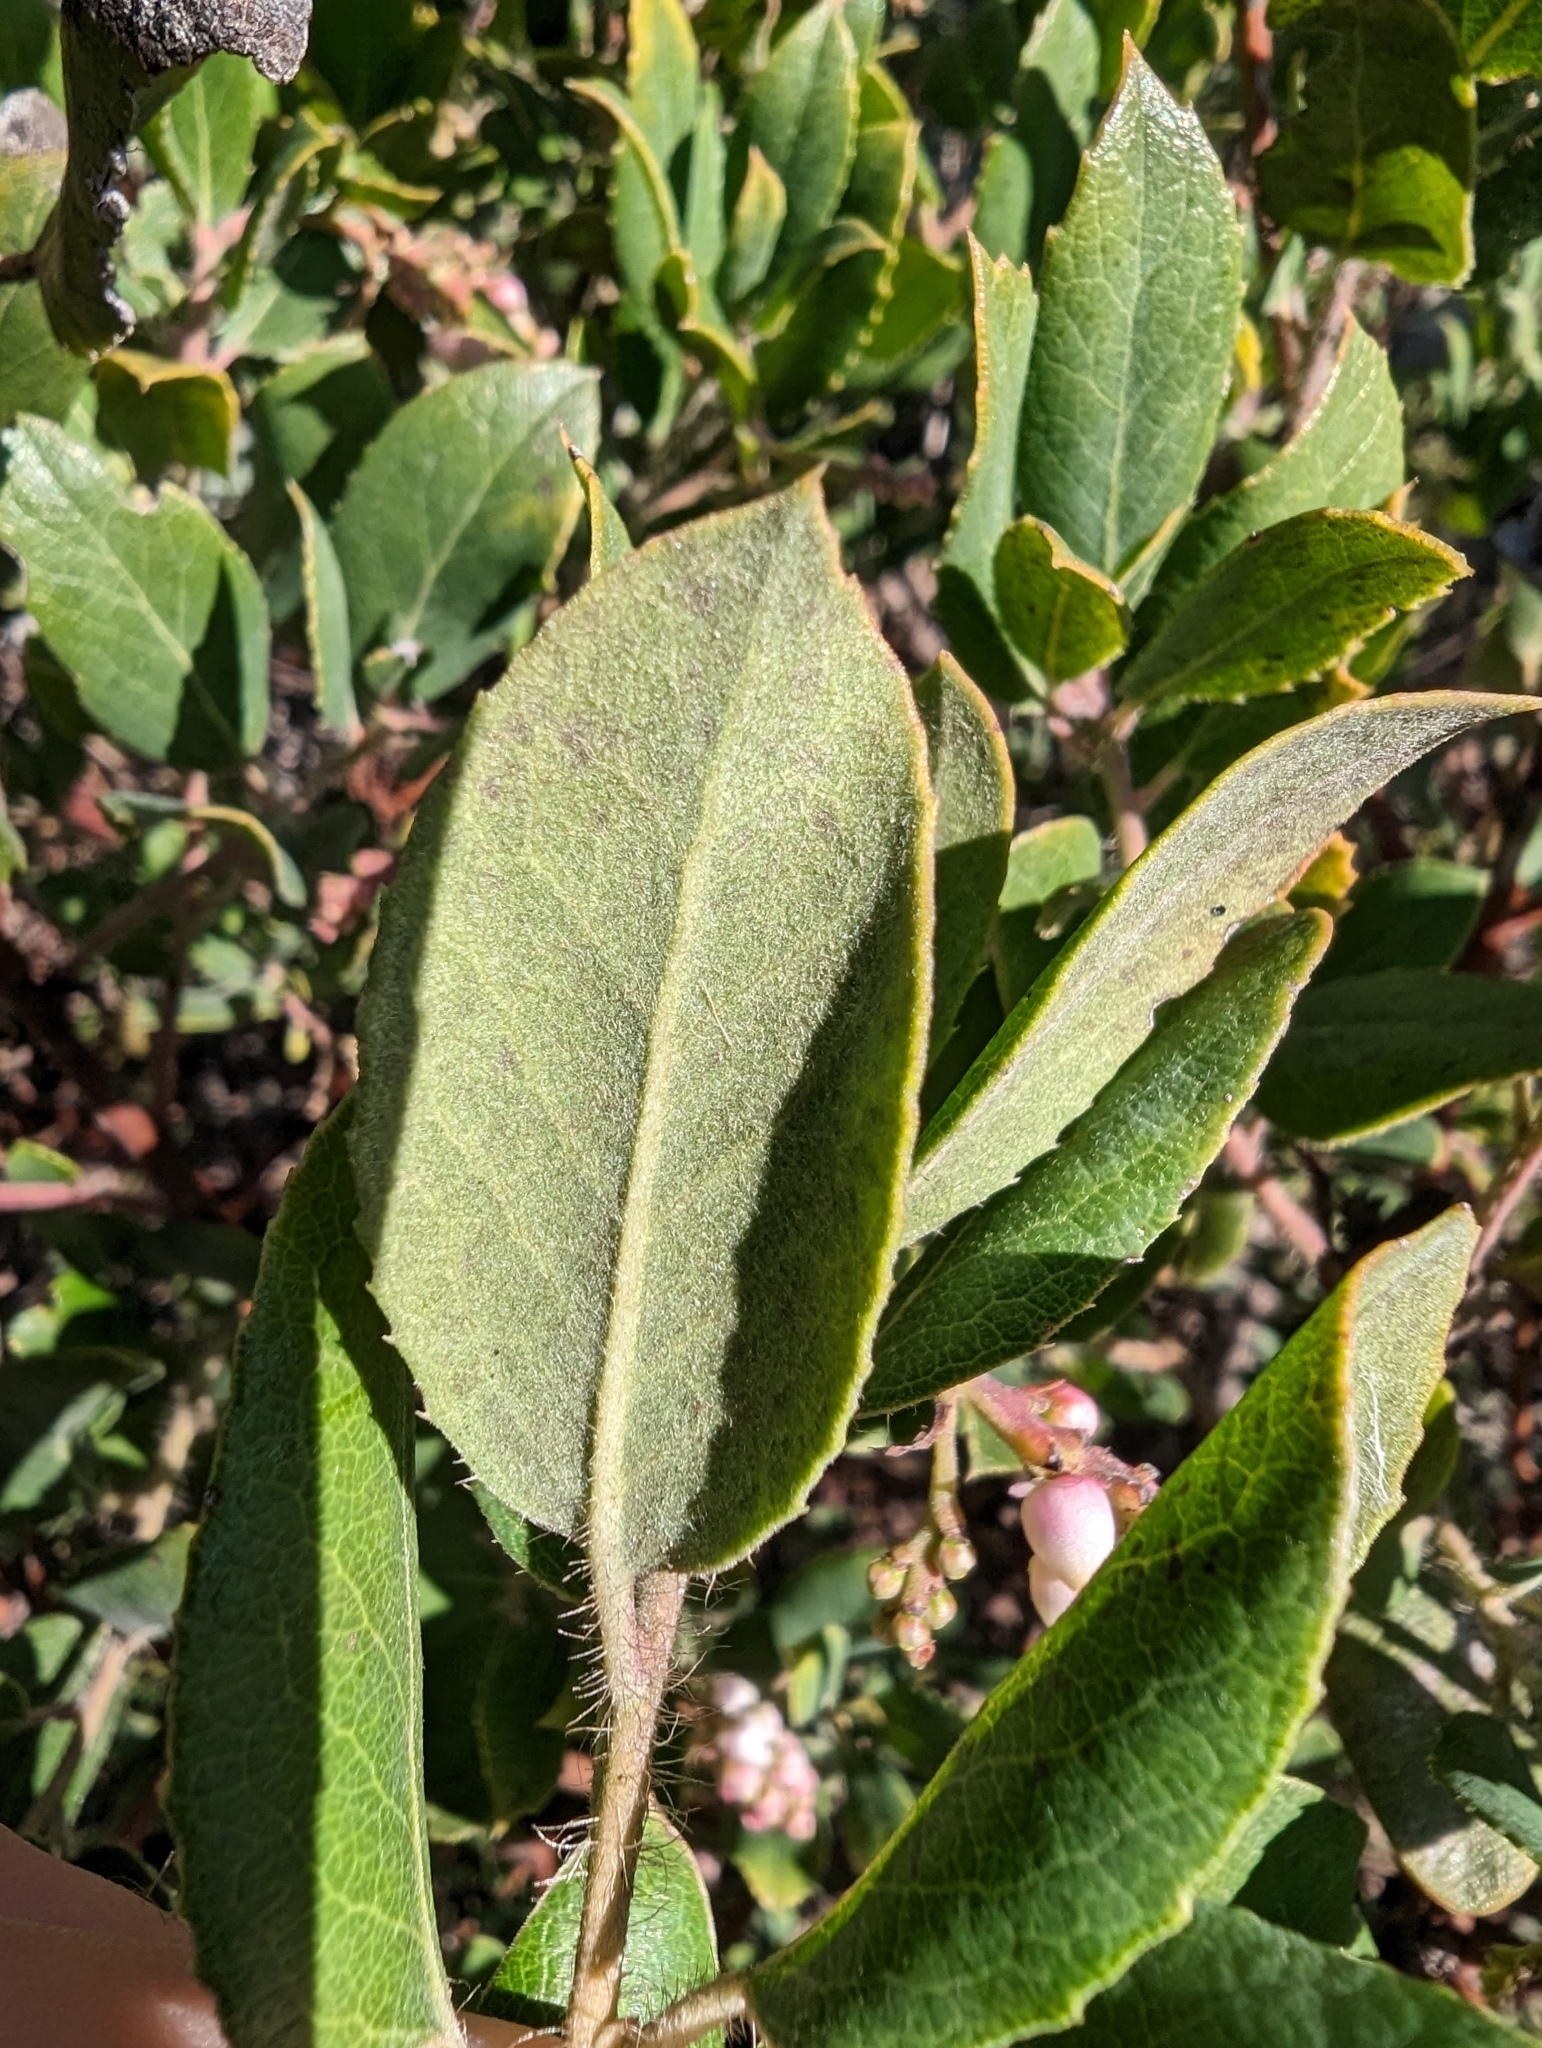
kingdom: Plantae
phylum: Tracheophyta
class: Magnoliopsida
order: Ericales
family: Ericaceae
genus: Arctostaphylos
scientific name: Arctostaphylos crustacea
